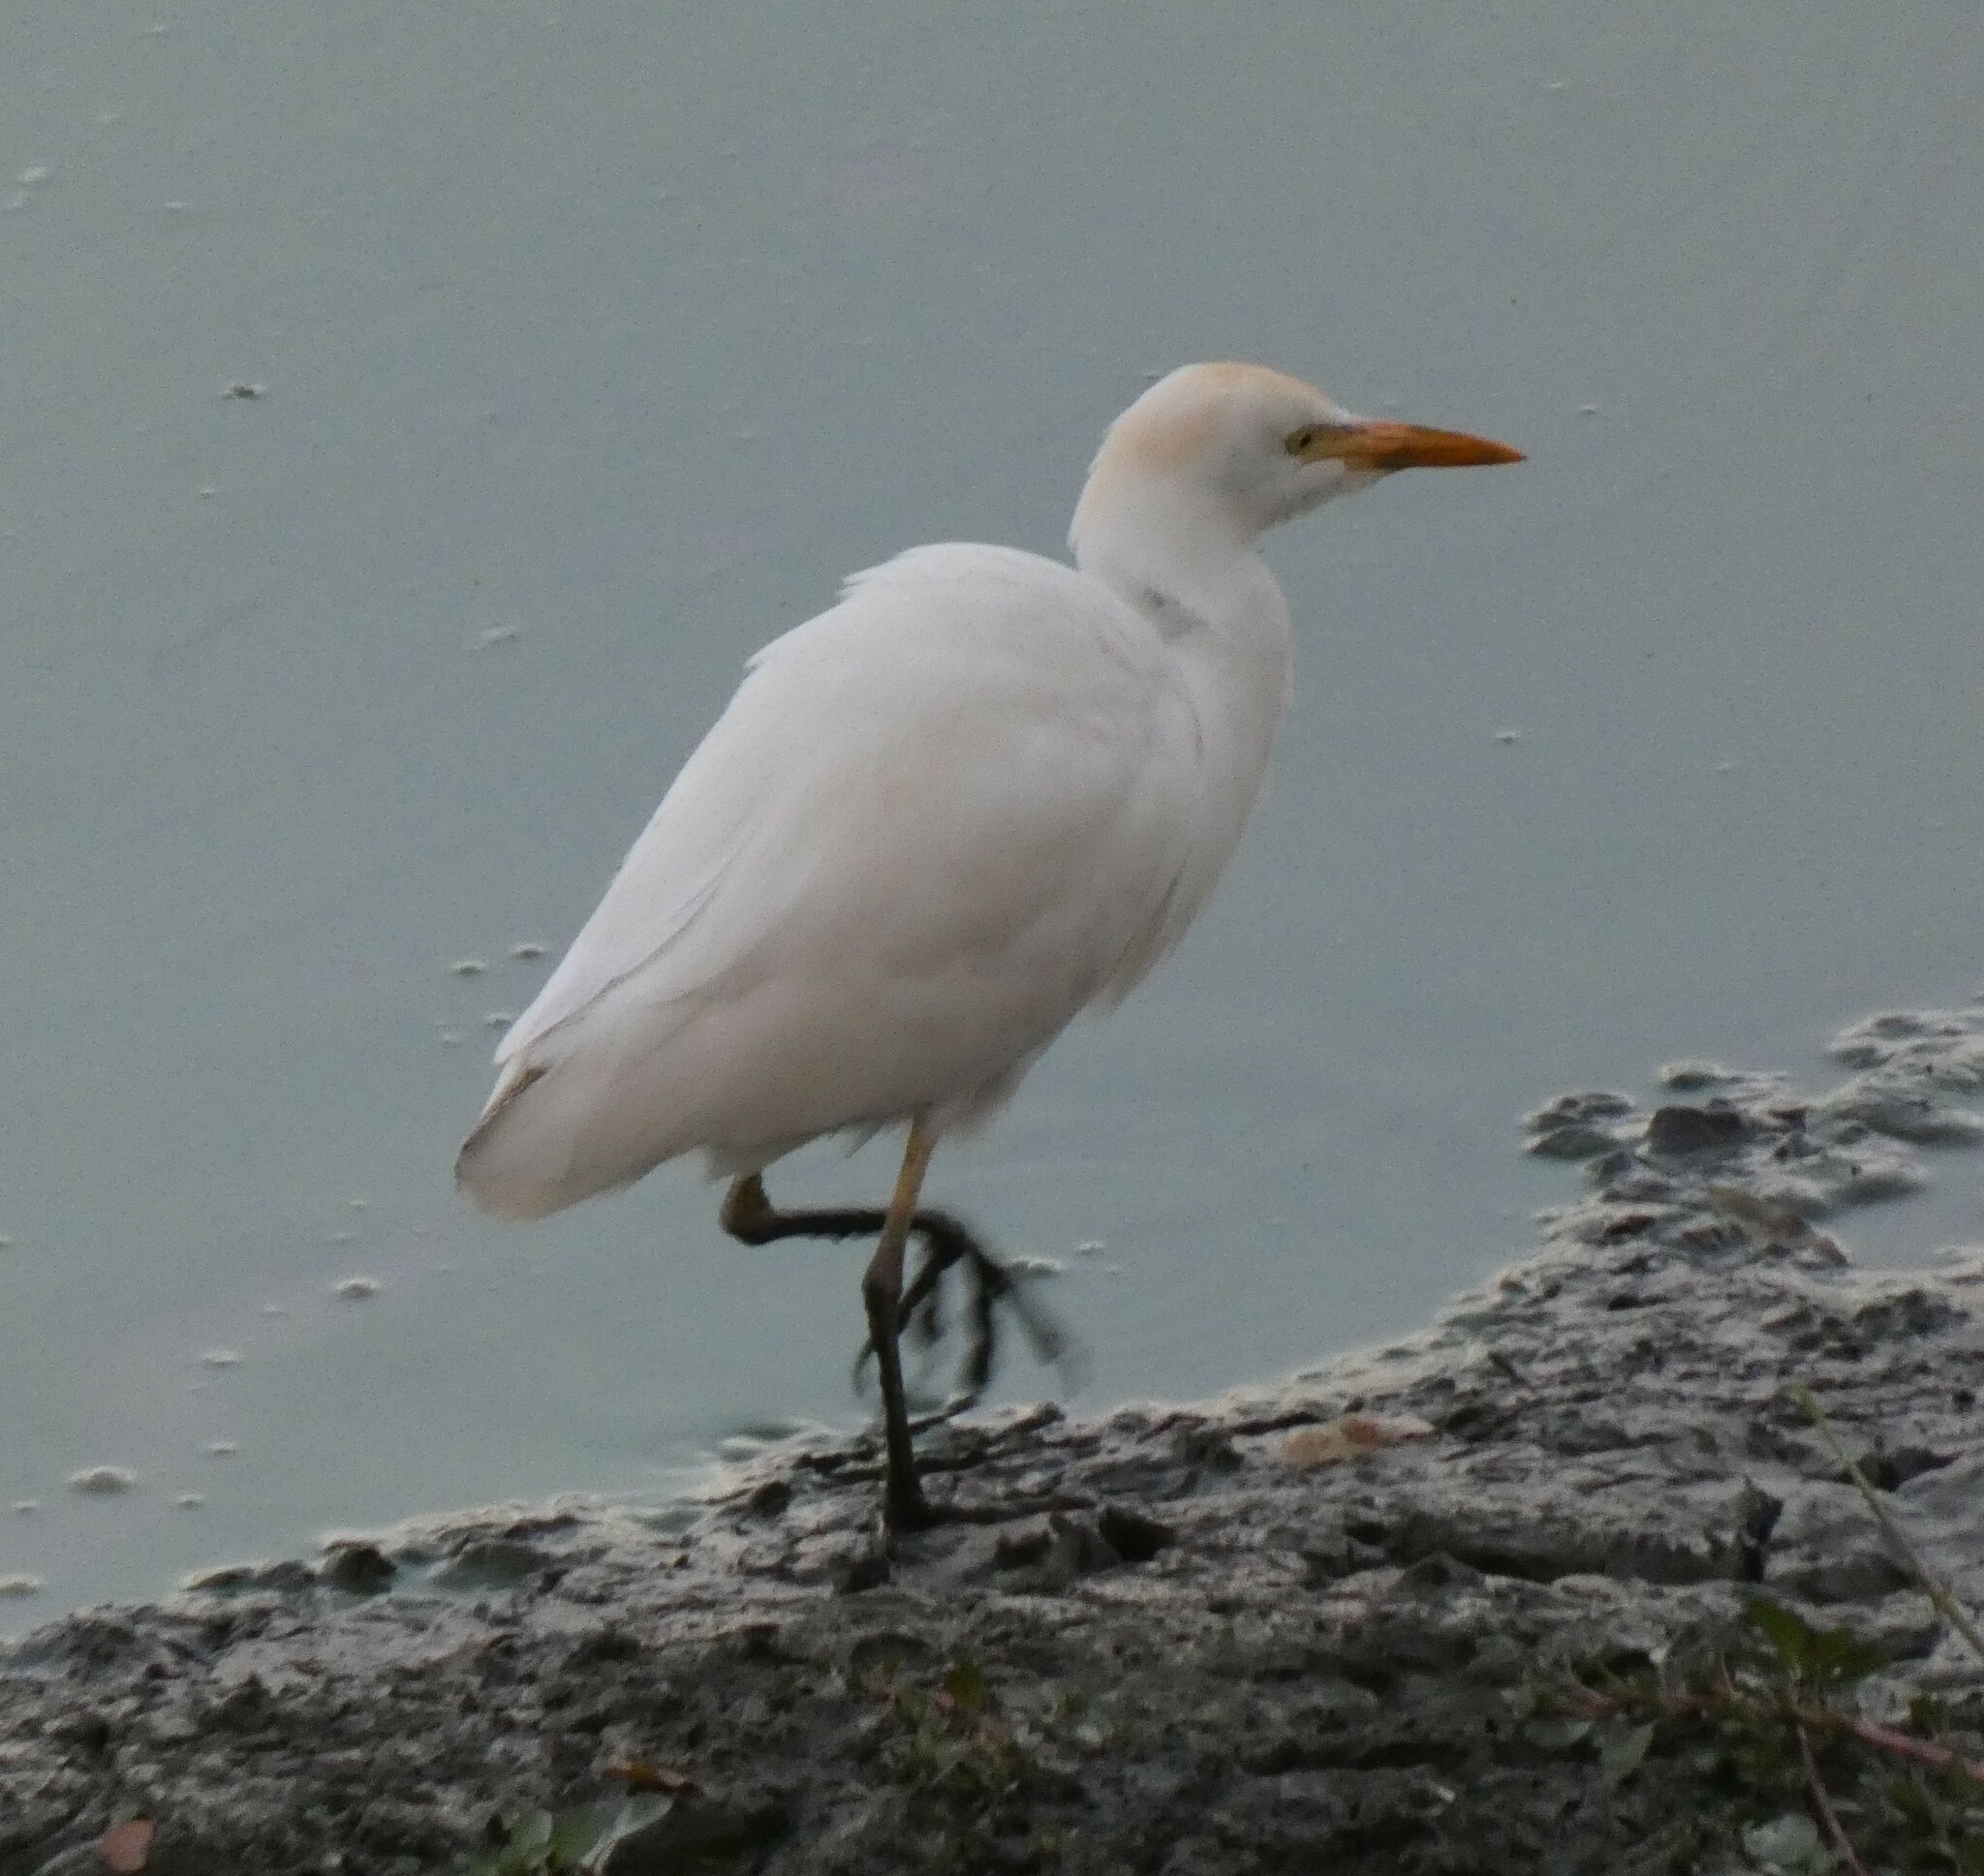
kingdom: Animalia
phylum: Chordata
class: Aves
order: Pelecaniformes
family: Ardeidae
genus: Bubulcus
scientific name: Bubulcus ibis
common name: Cattle egret
